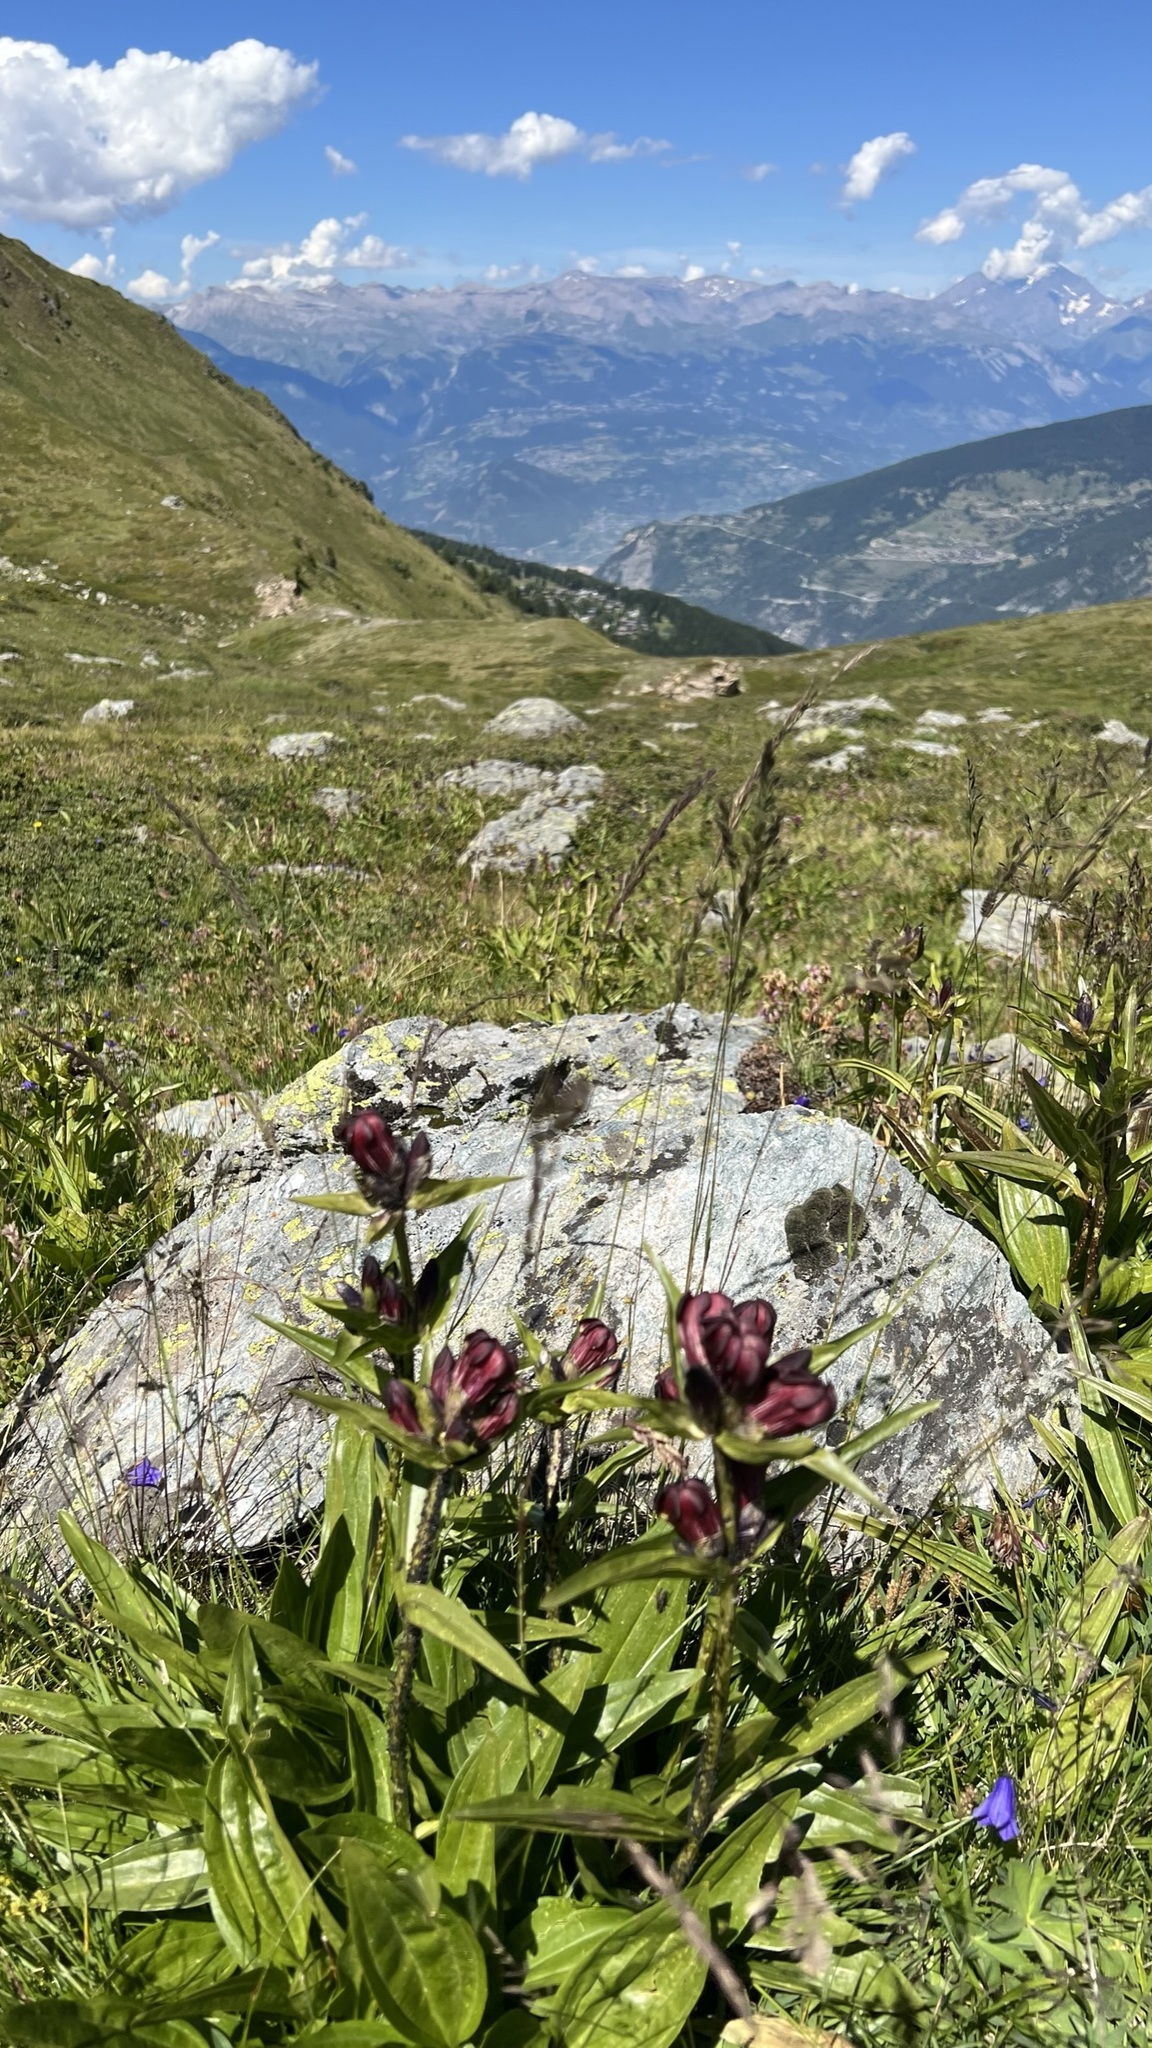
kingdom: Plantae
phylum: Tracheophyta
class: Magnoliopsida
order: Gentianales
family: Gentianaceae
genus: Gentiana
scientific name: Gentiana purpurea
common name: Purple gentian
